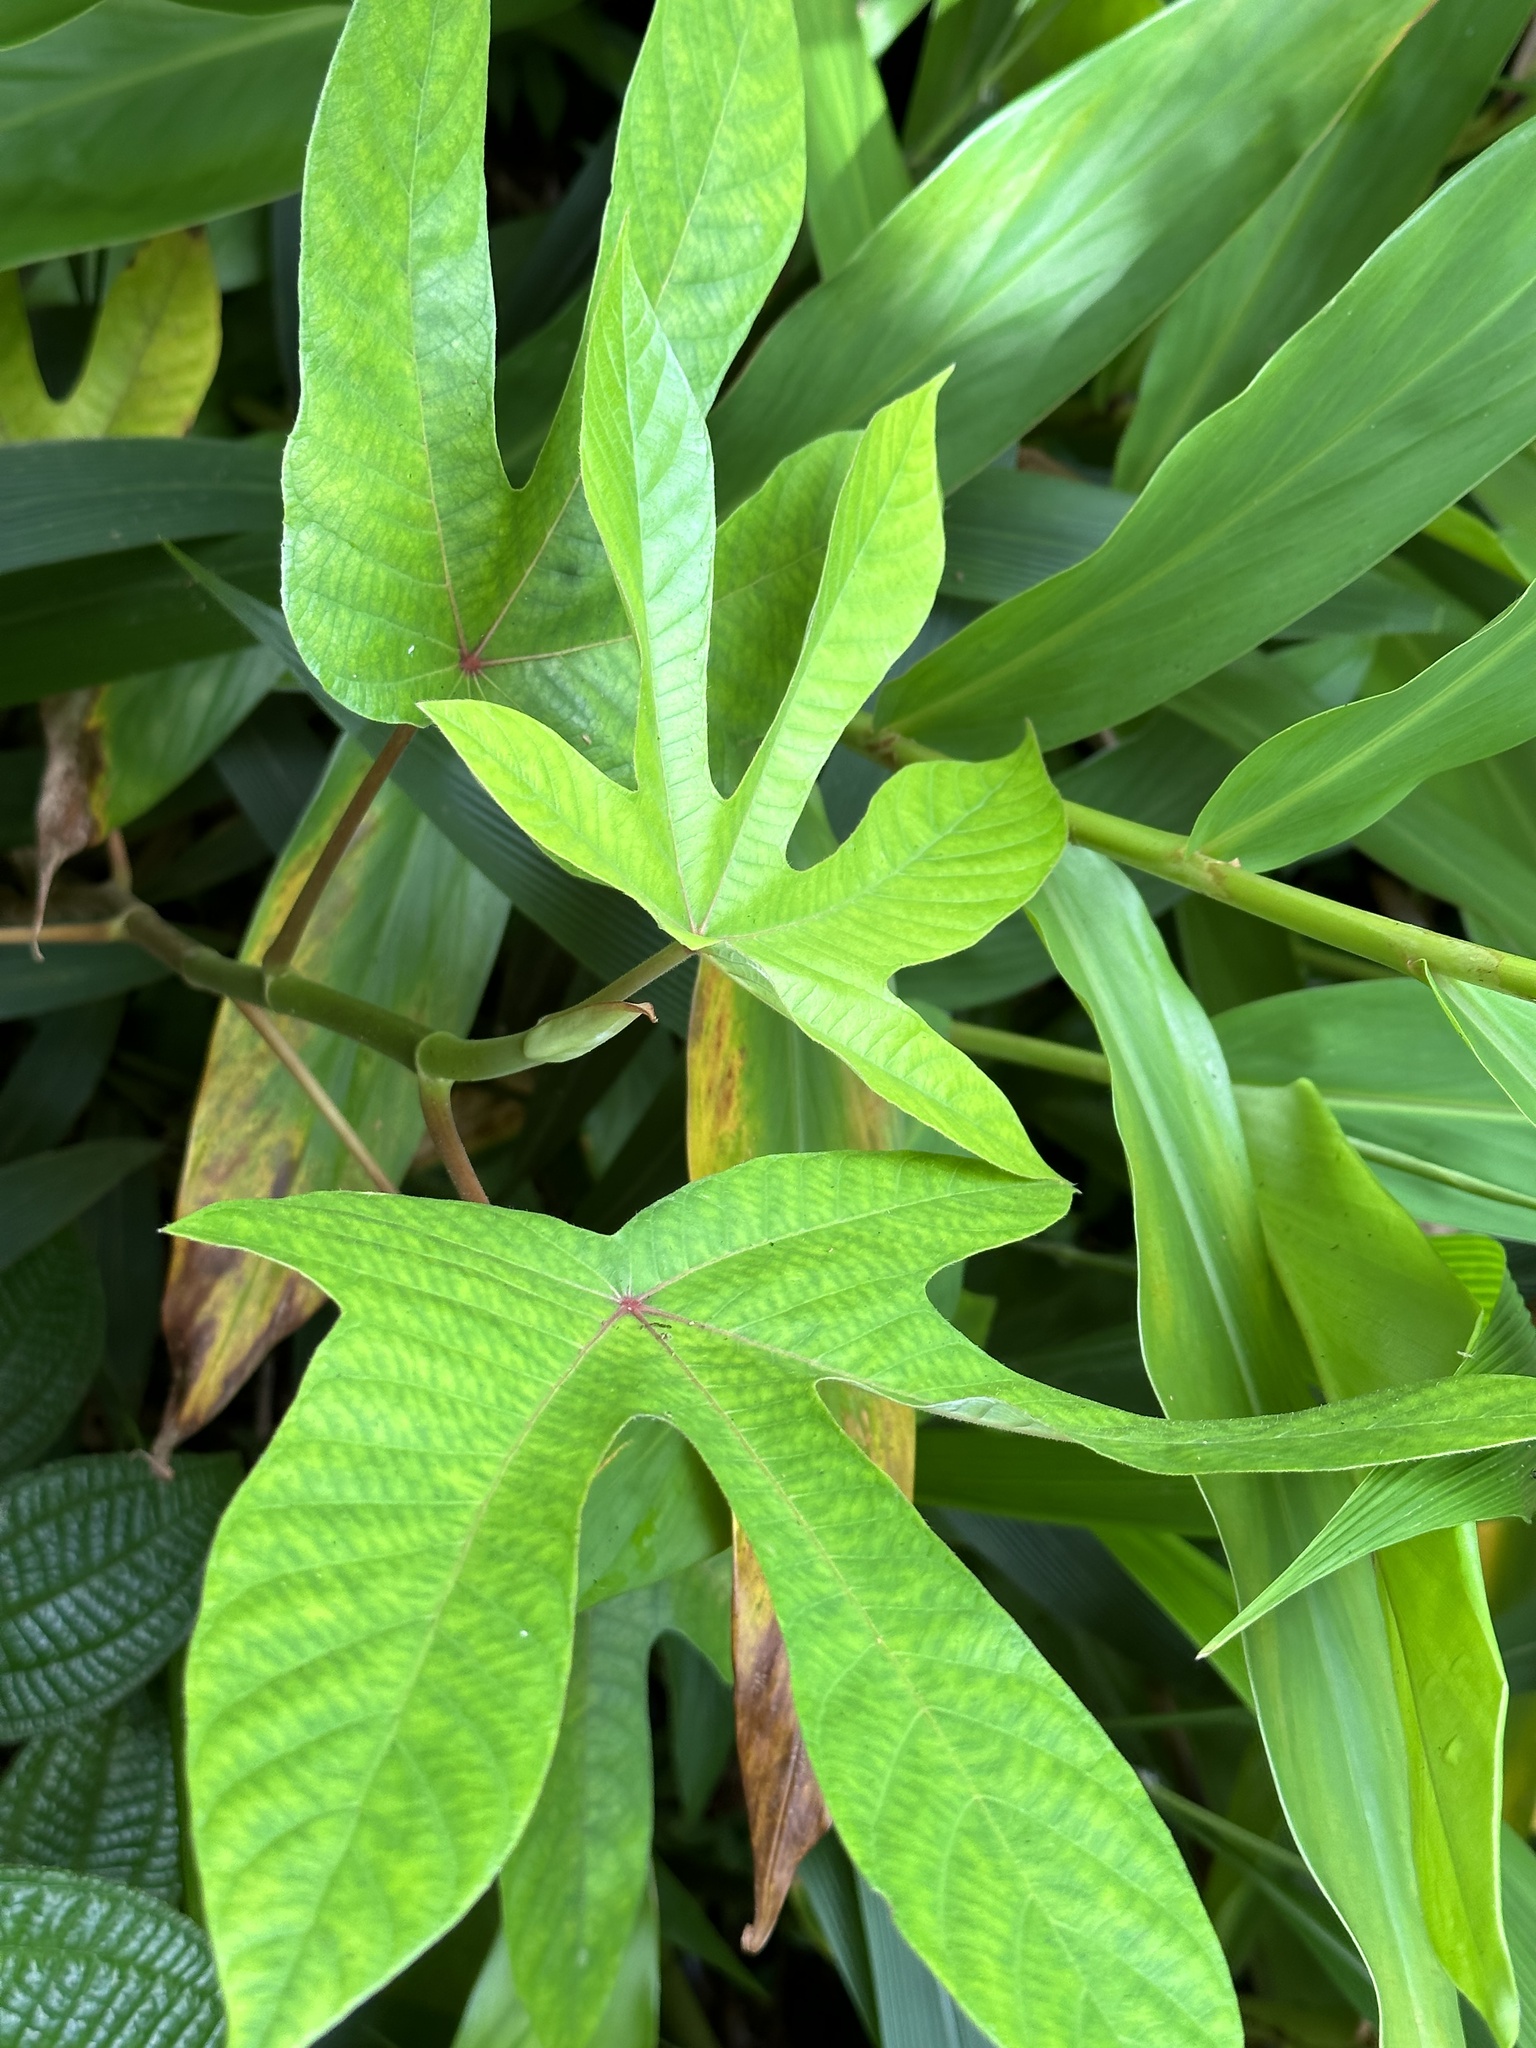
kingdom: Plantae
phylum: Tracheophyta
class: Magnoliopsida
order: Rosales
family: Urticaceae
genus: Cecropia
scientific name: Cecropia obtusifolia
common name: Trumpet tree
